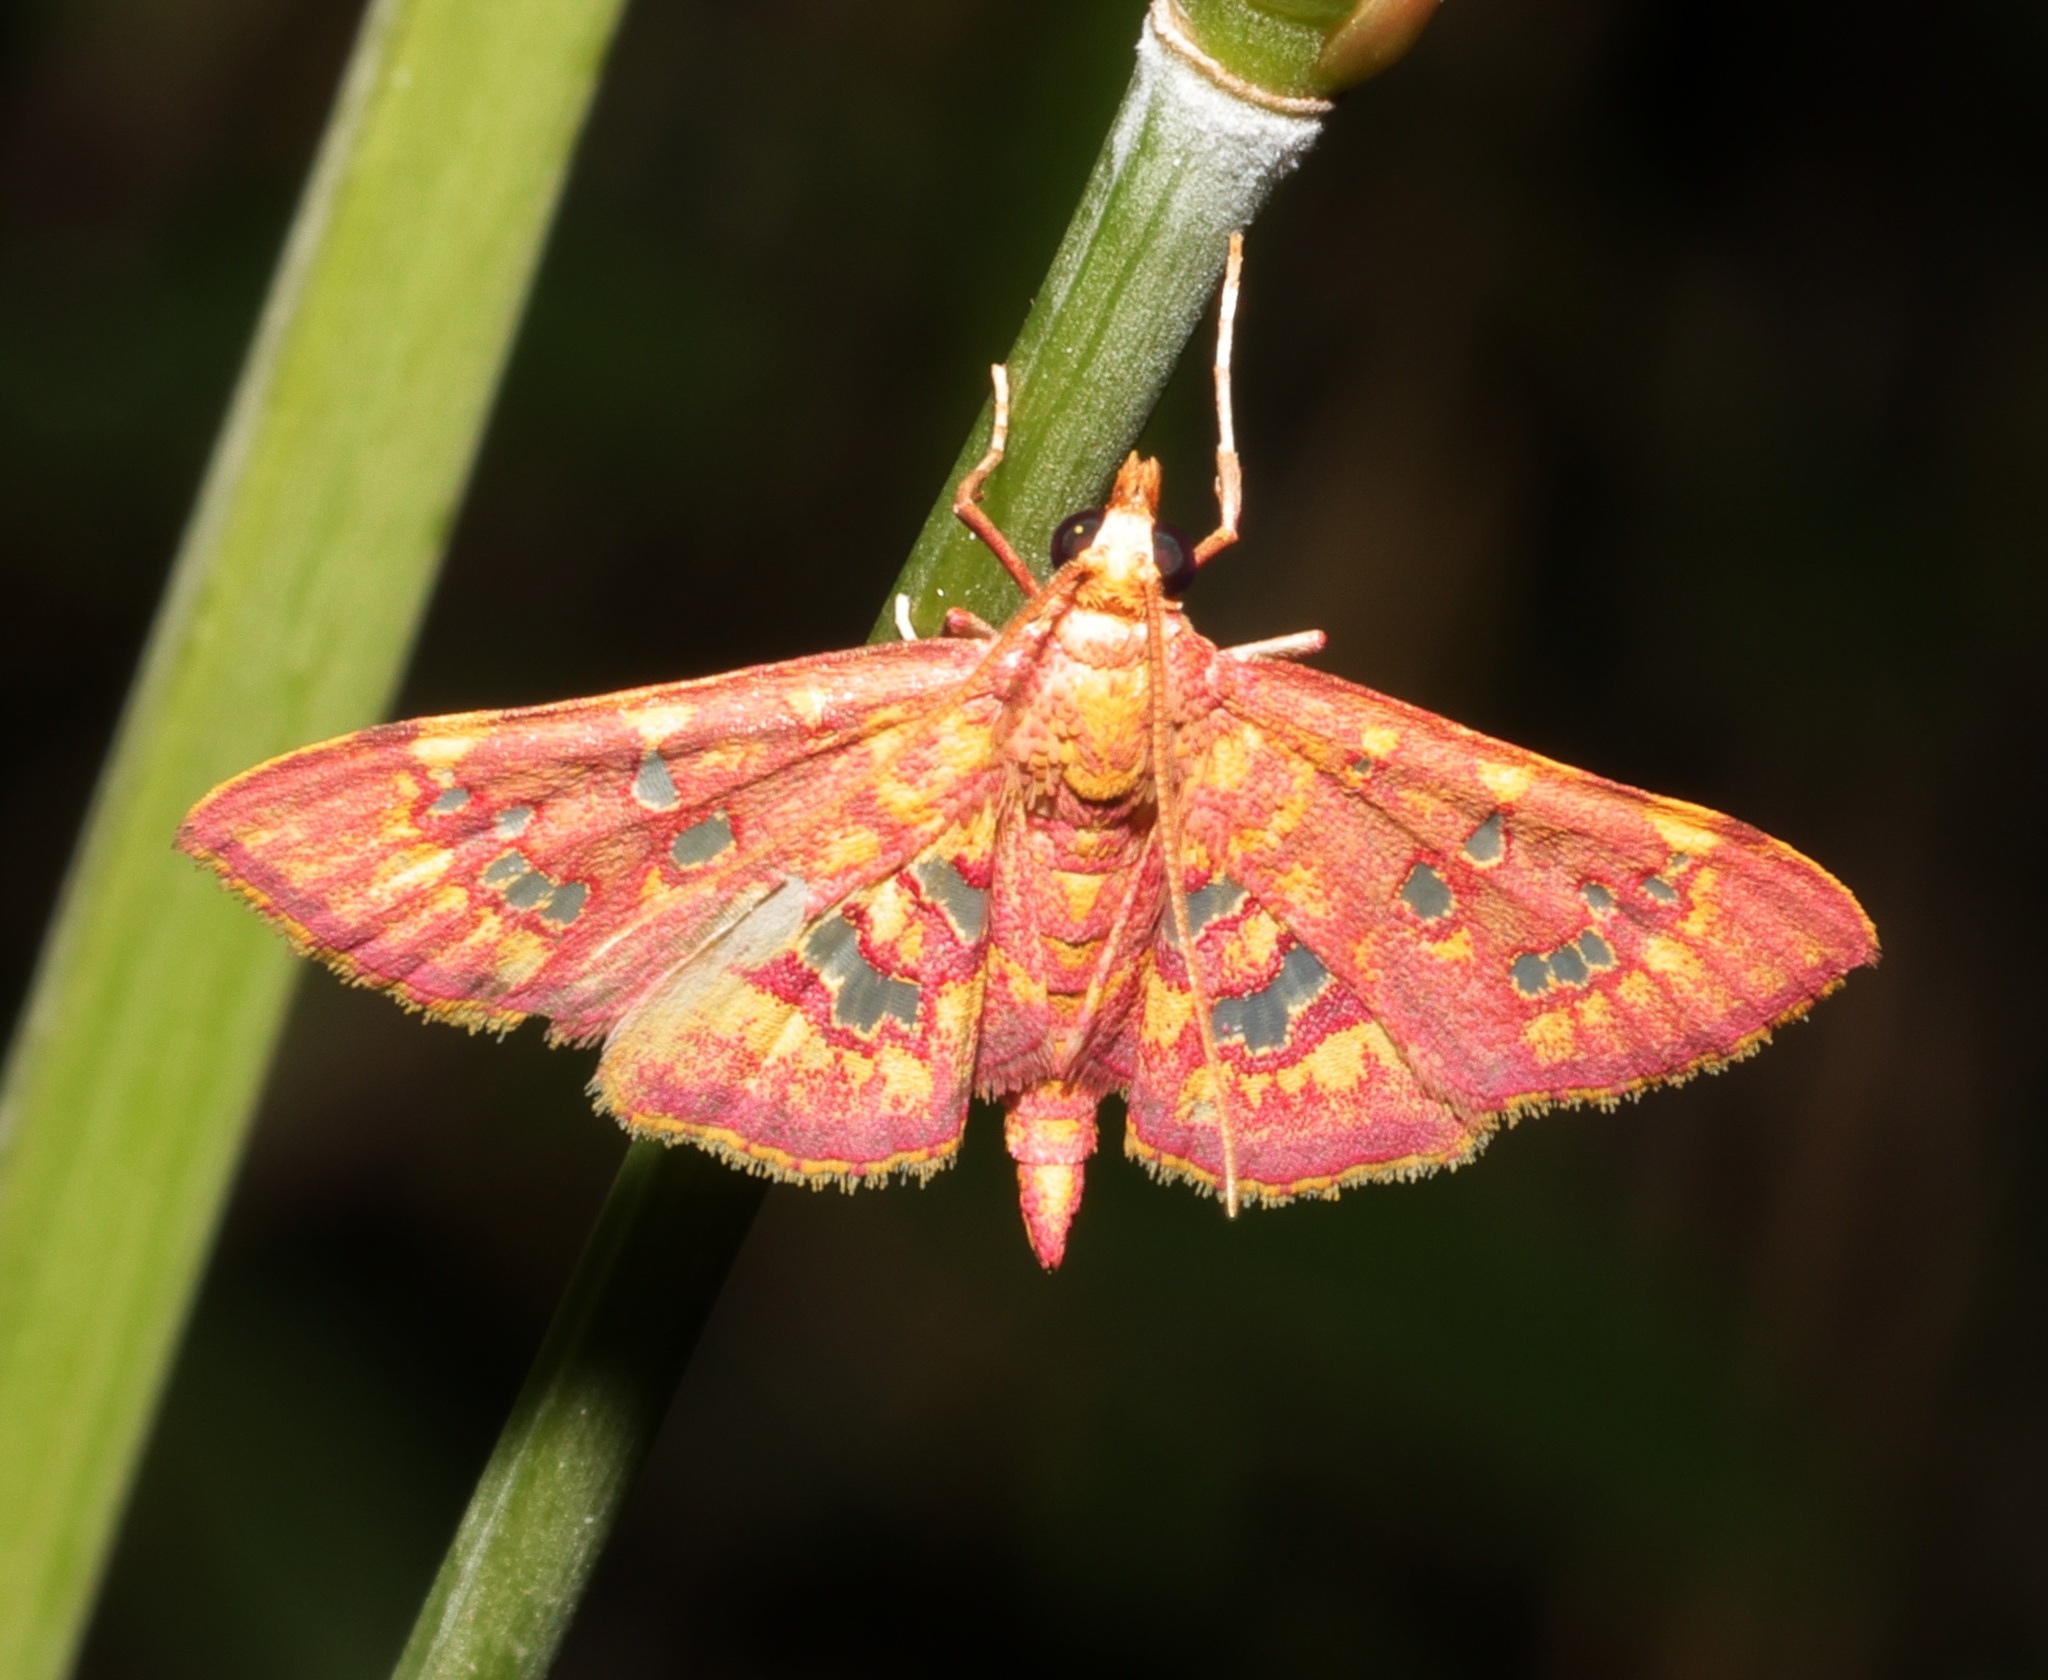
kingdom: Animalia
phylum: Arthropoda
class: Insecta
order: Lepidoptera
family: Crambidae
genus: Ischnurges
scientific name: Ischnurges gratiosalis
